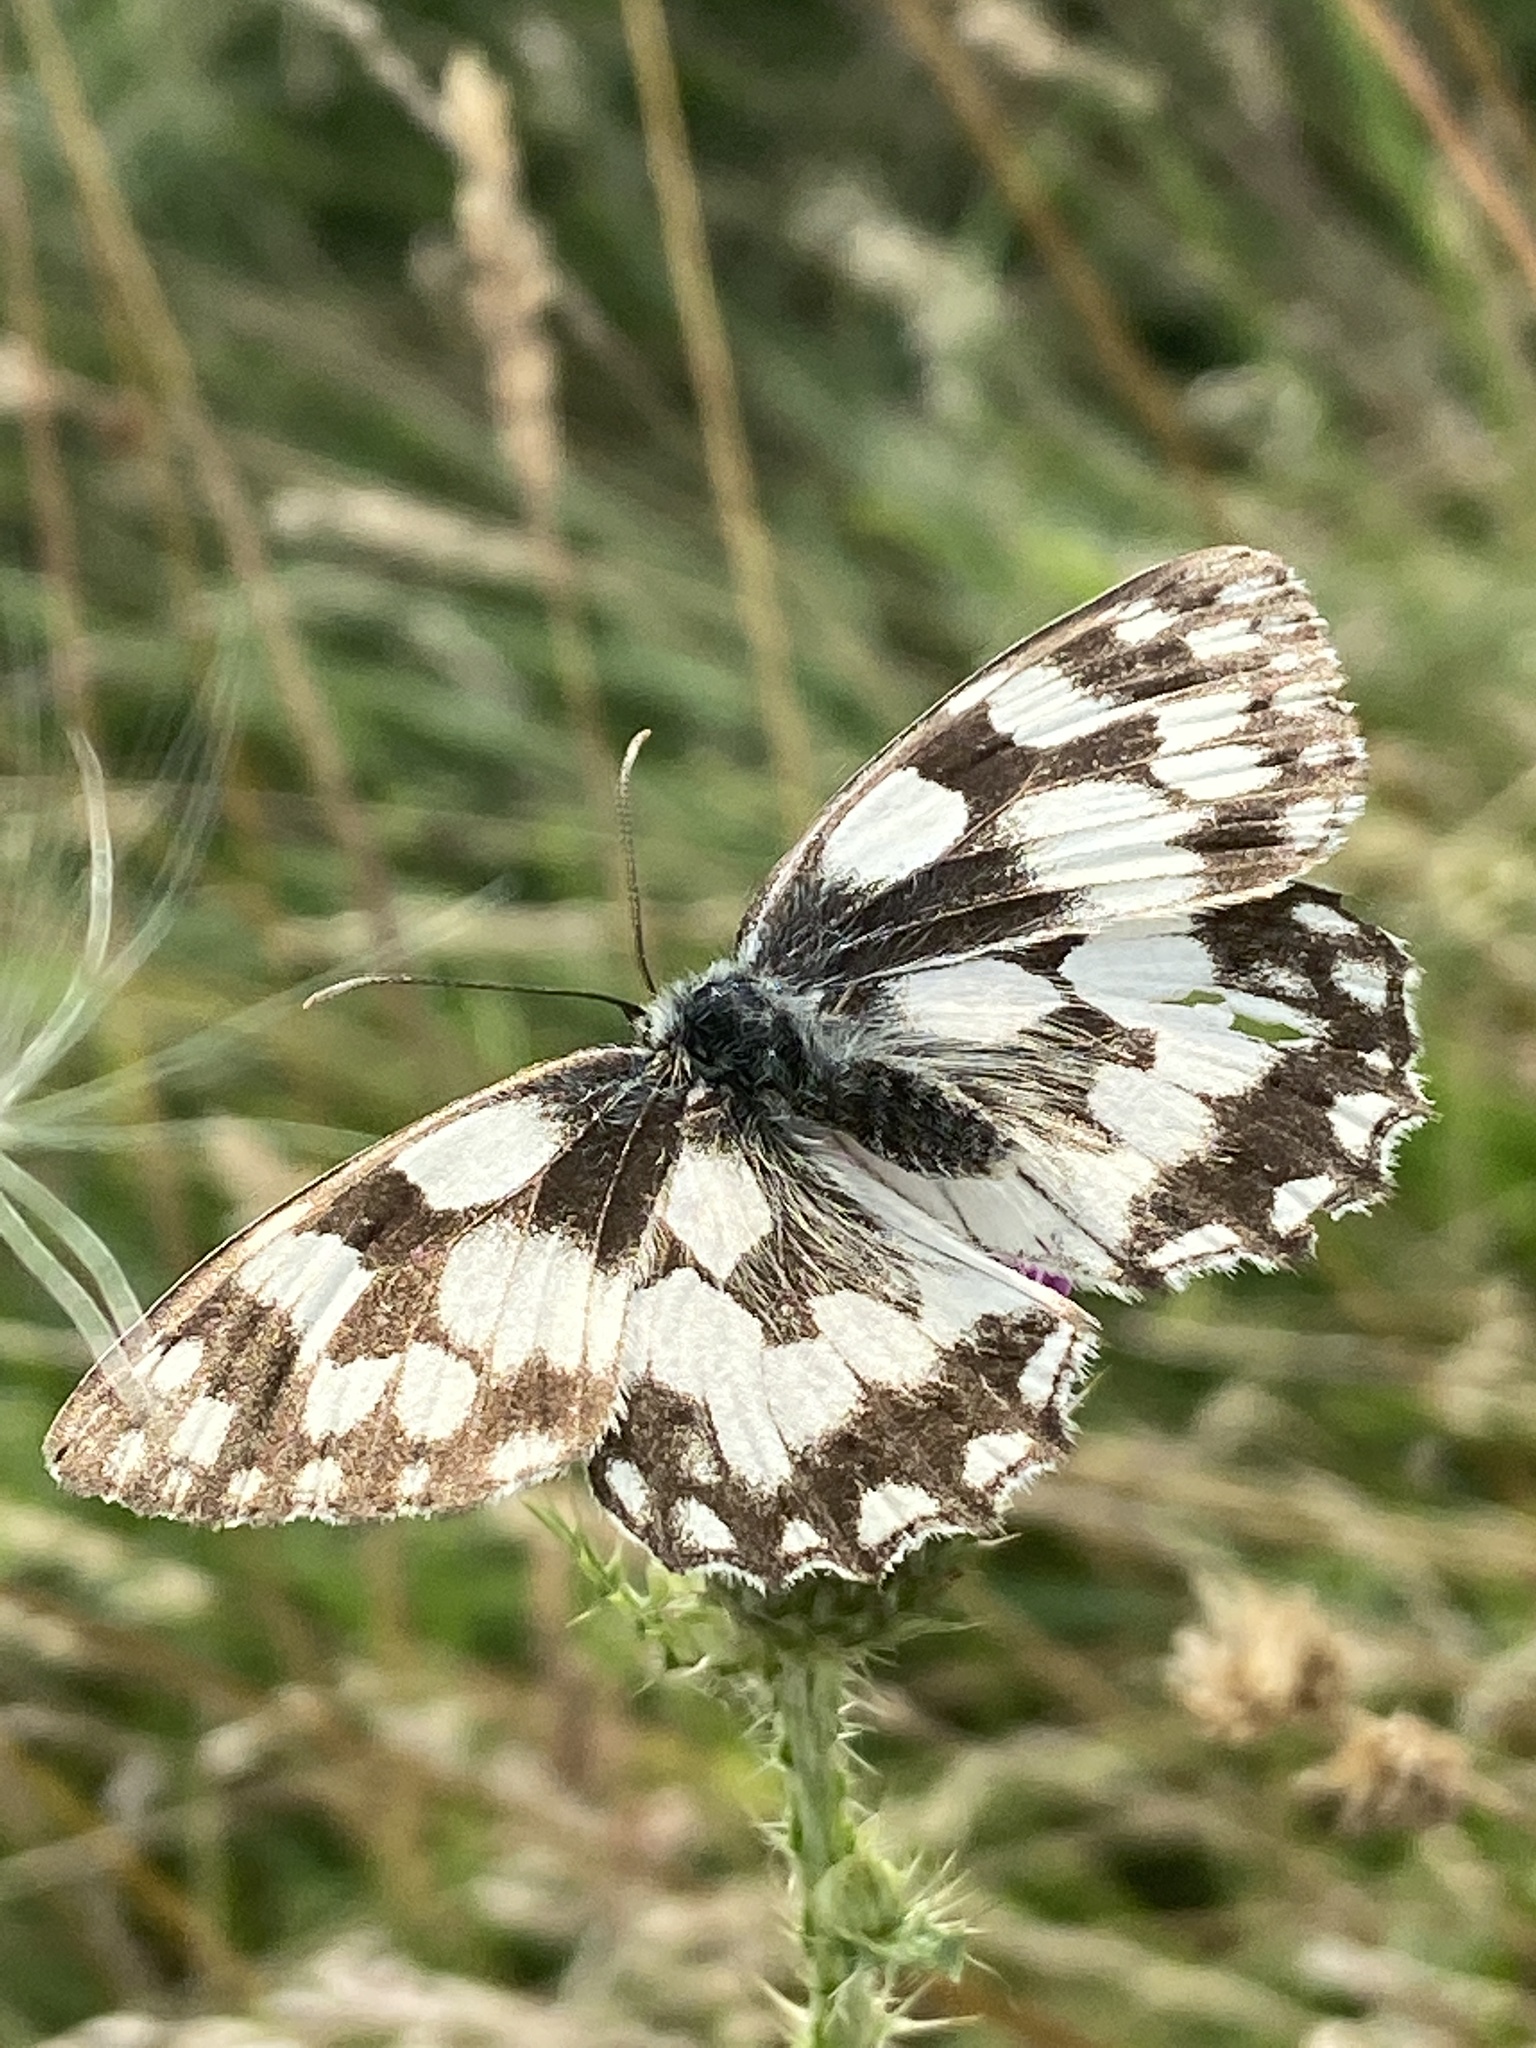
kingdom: Animalia
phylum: Arthropoda
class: Insecta
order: Lepidoptera
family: Nymphalidae
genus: Melanargia
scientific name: Melanargia galathea
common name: Marbled white
